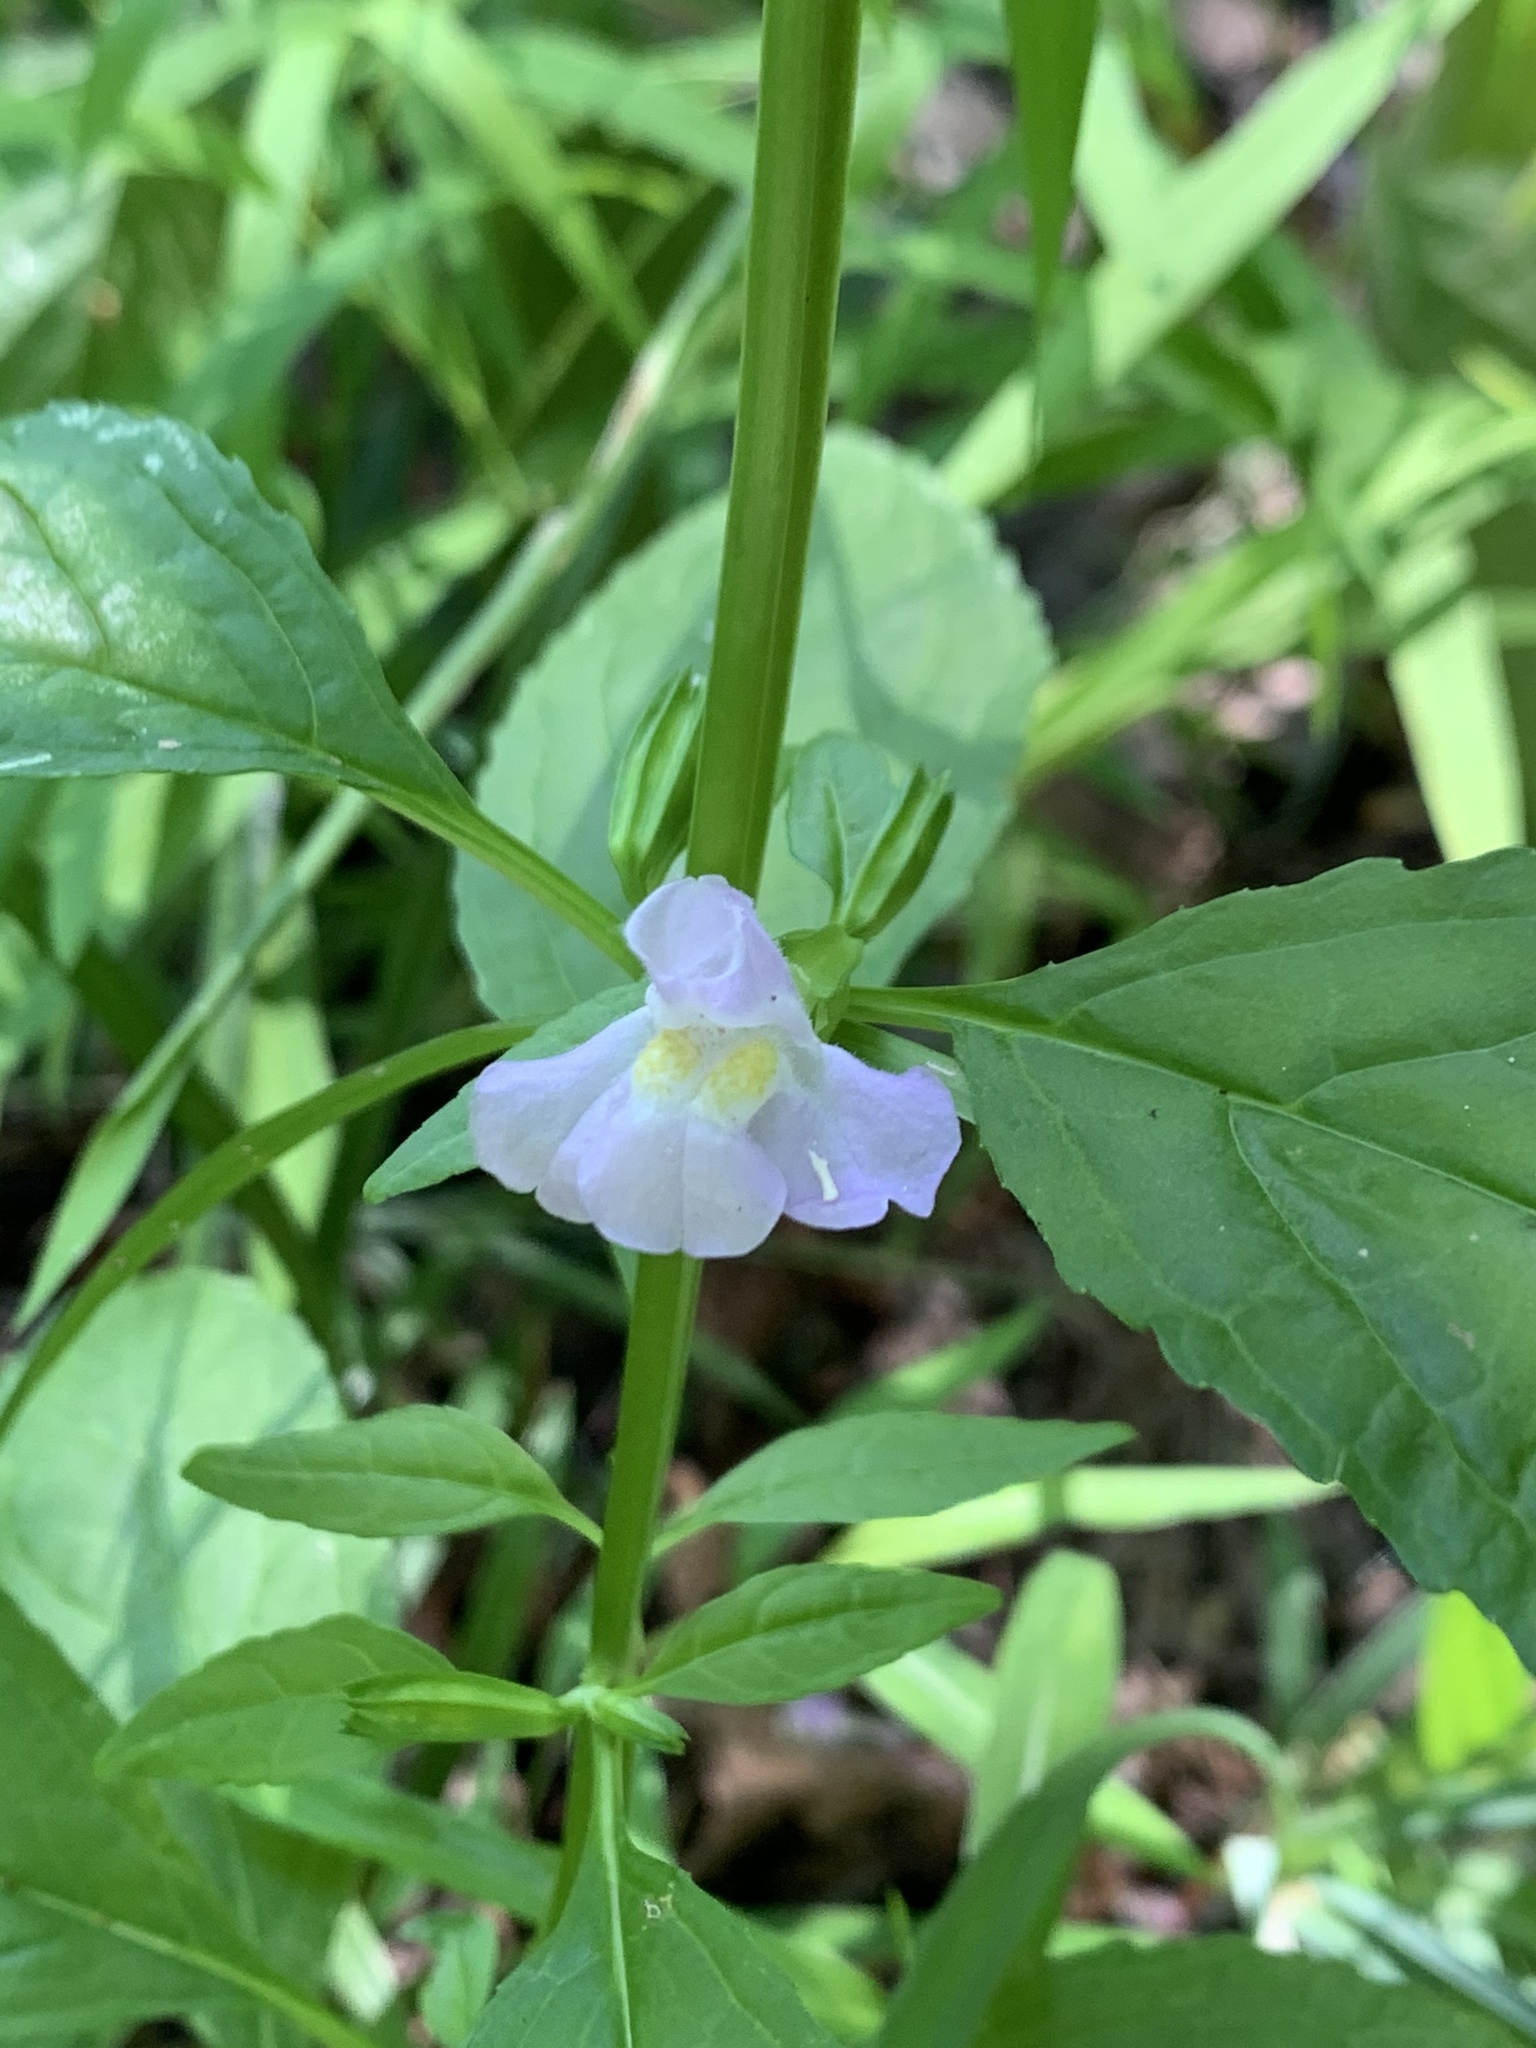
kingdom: Plantae
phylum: Tracheophyta
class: Magnoliopsida
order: Lamiales
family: Phrymaceae
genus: Mimulus
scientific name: Mimulus alatus
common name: Sharp-wing monkey-flower
